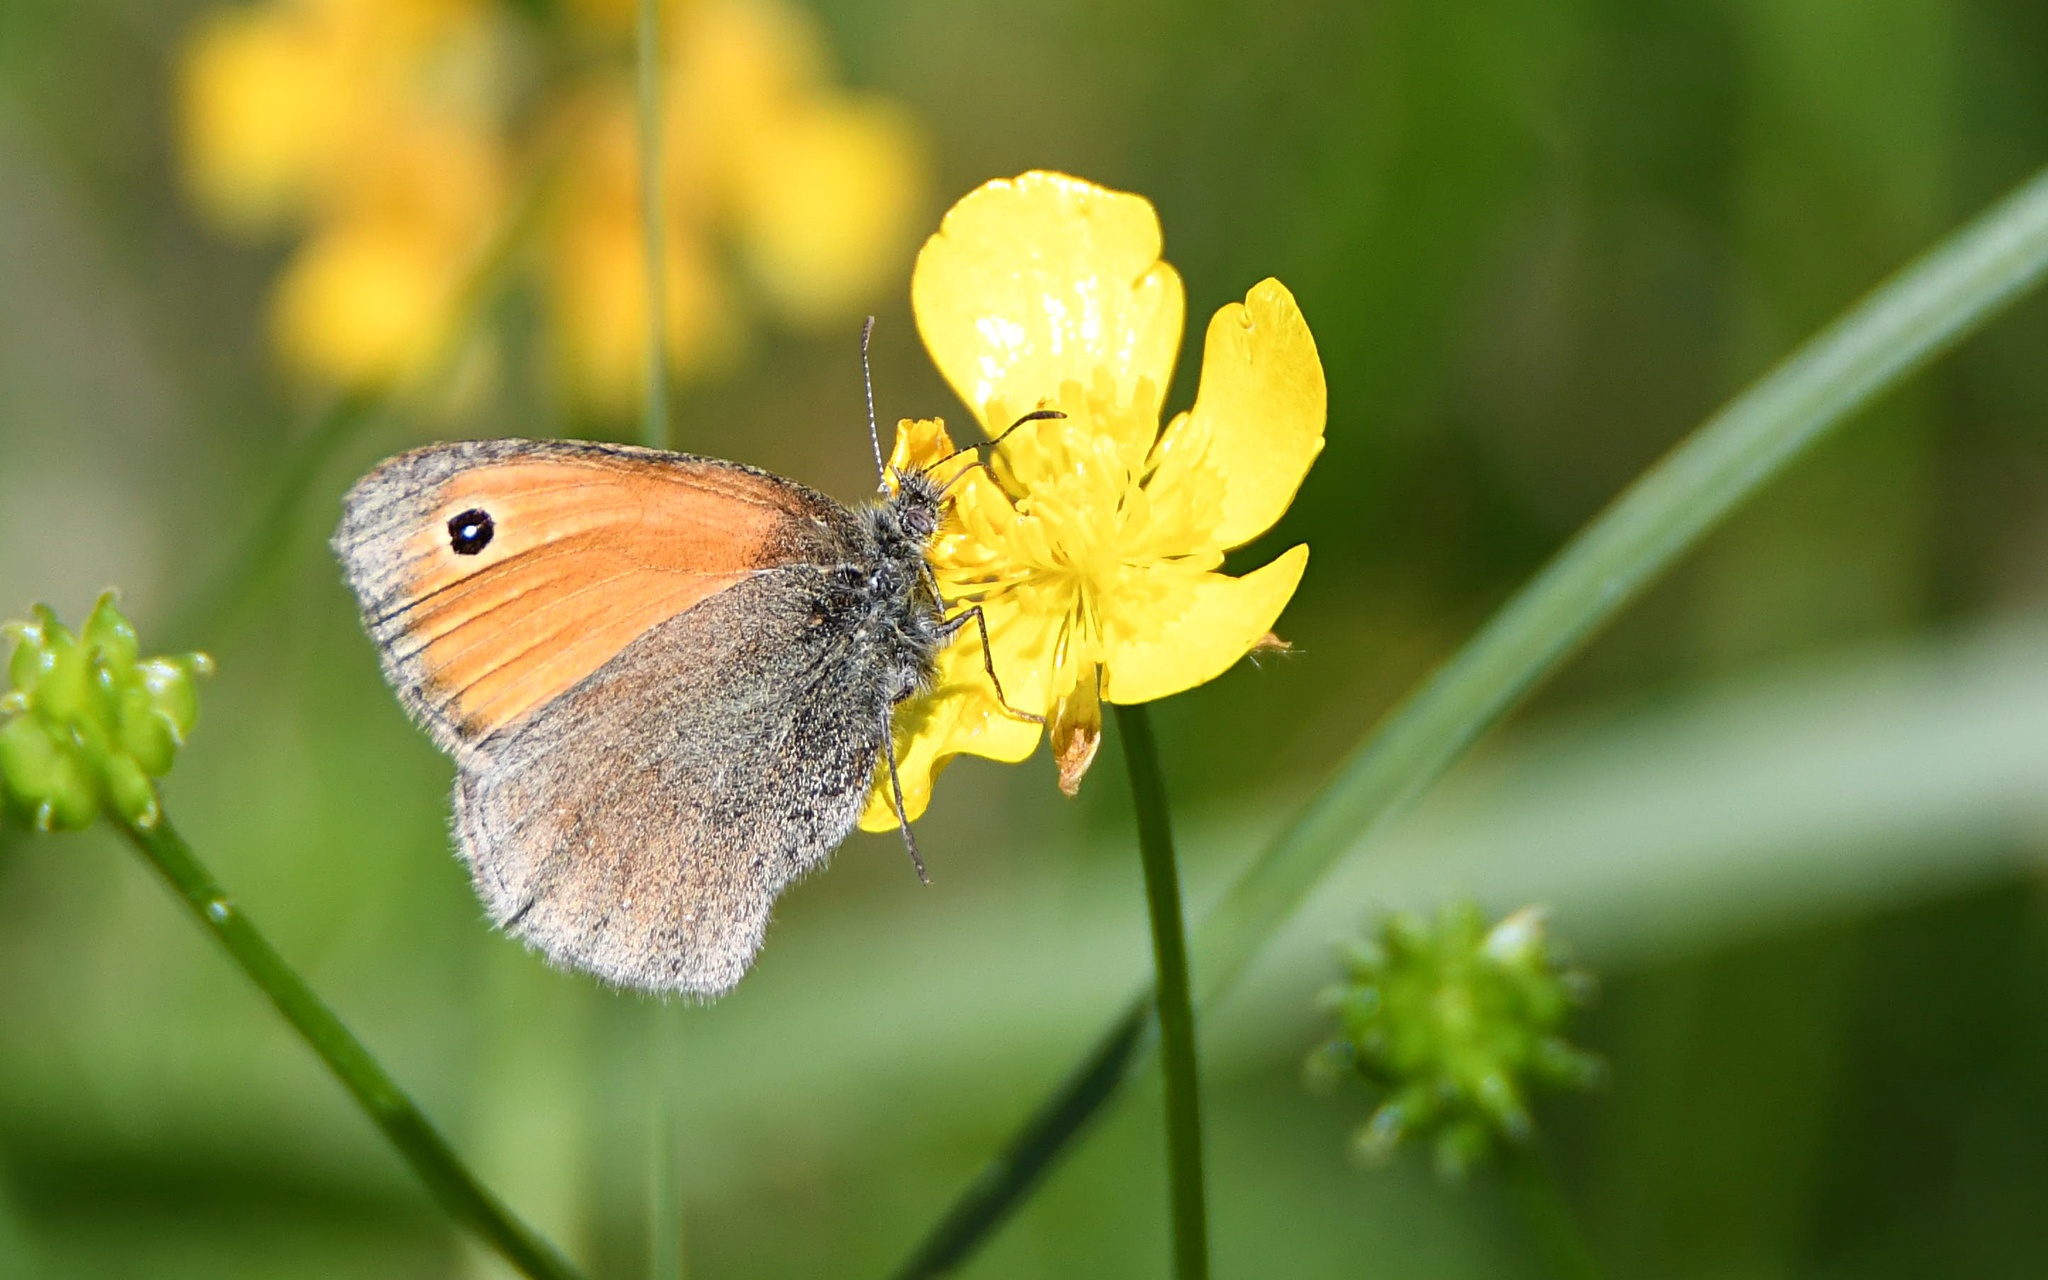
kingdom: Animalia
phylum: Arthropoda
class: Insecta
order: Lepidoptera
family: Nymphalidae
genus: Coenonympha
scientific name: Coenonympha pamphilus
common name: Small heath
